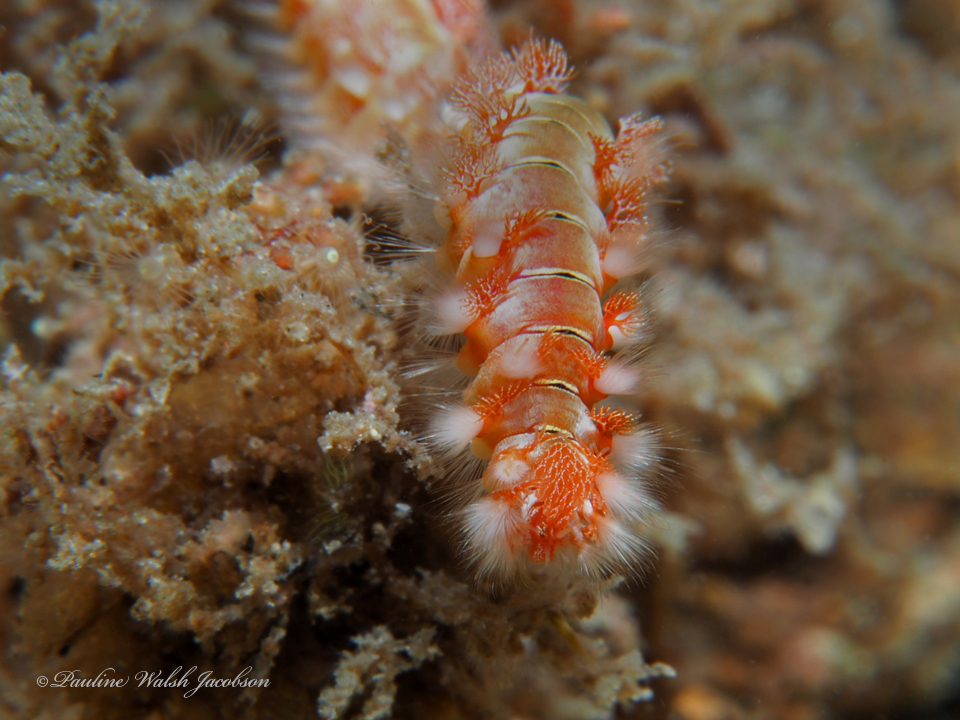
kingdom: Animalia
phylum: Annelida
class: Polychaeta
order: Amphinomida
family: Amphinomidae
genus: Hermodice
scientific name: Hermodice carunculata
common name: Bearded fireworm
